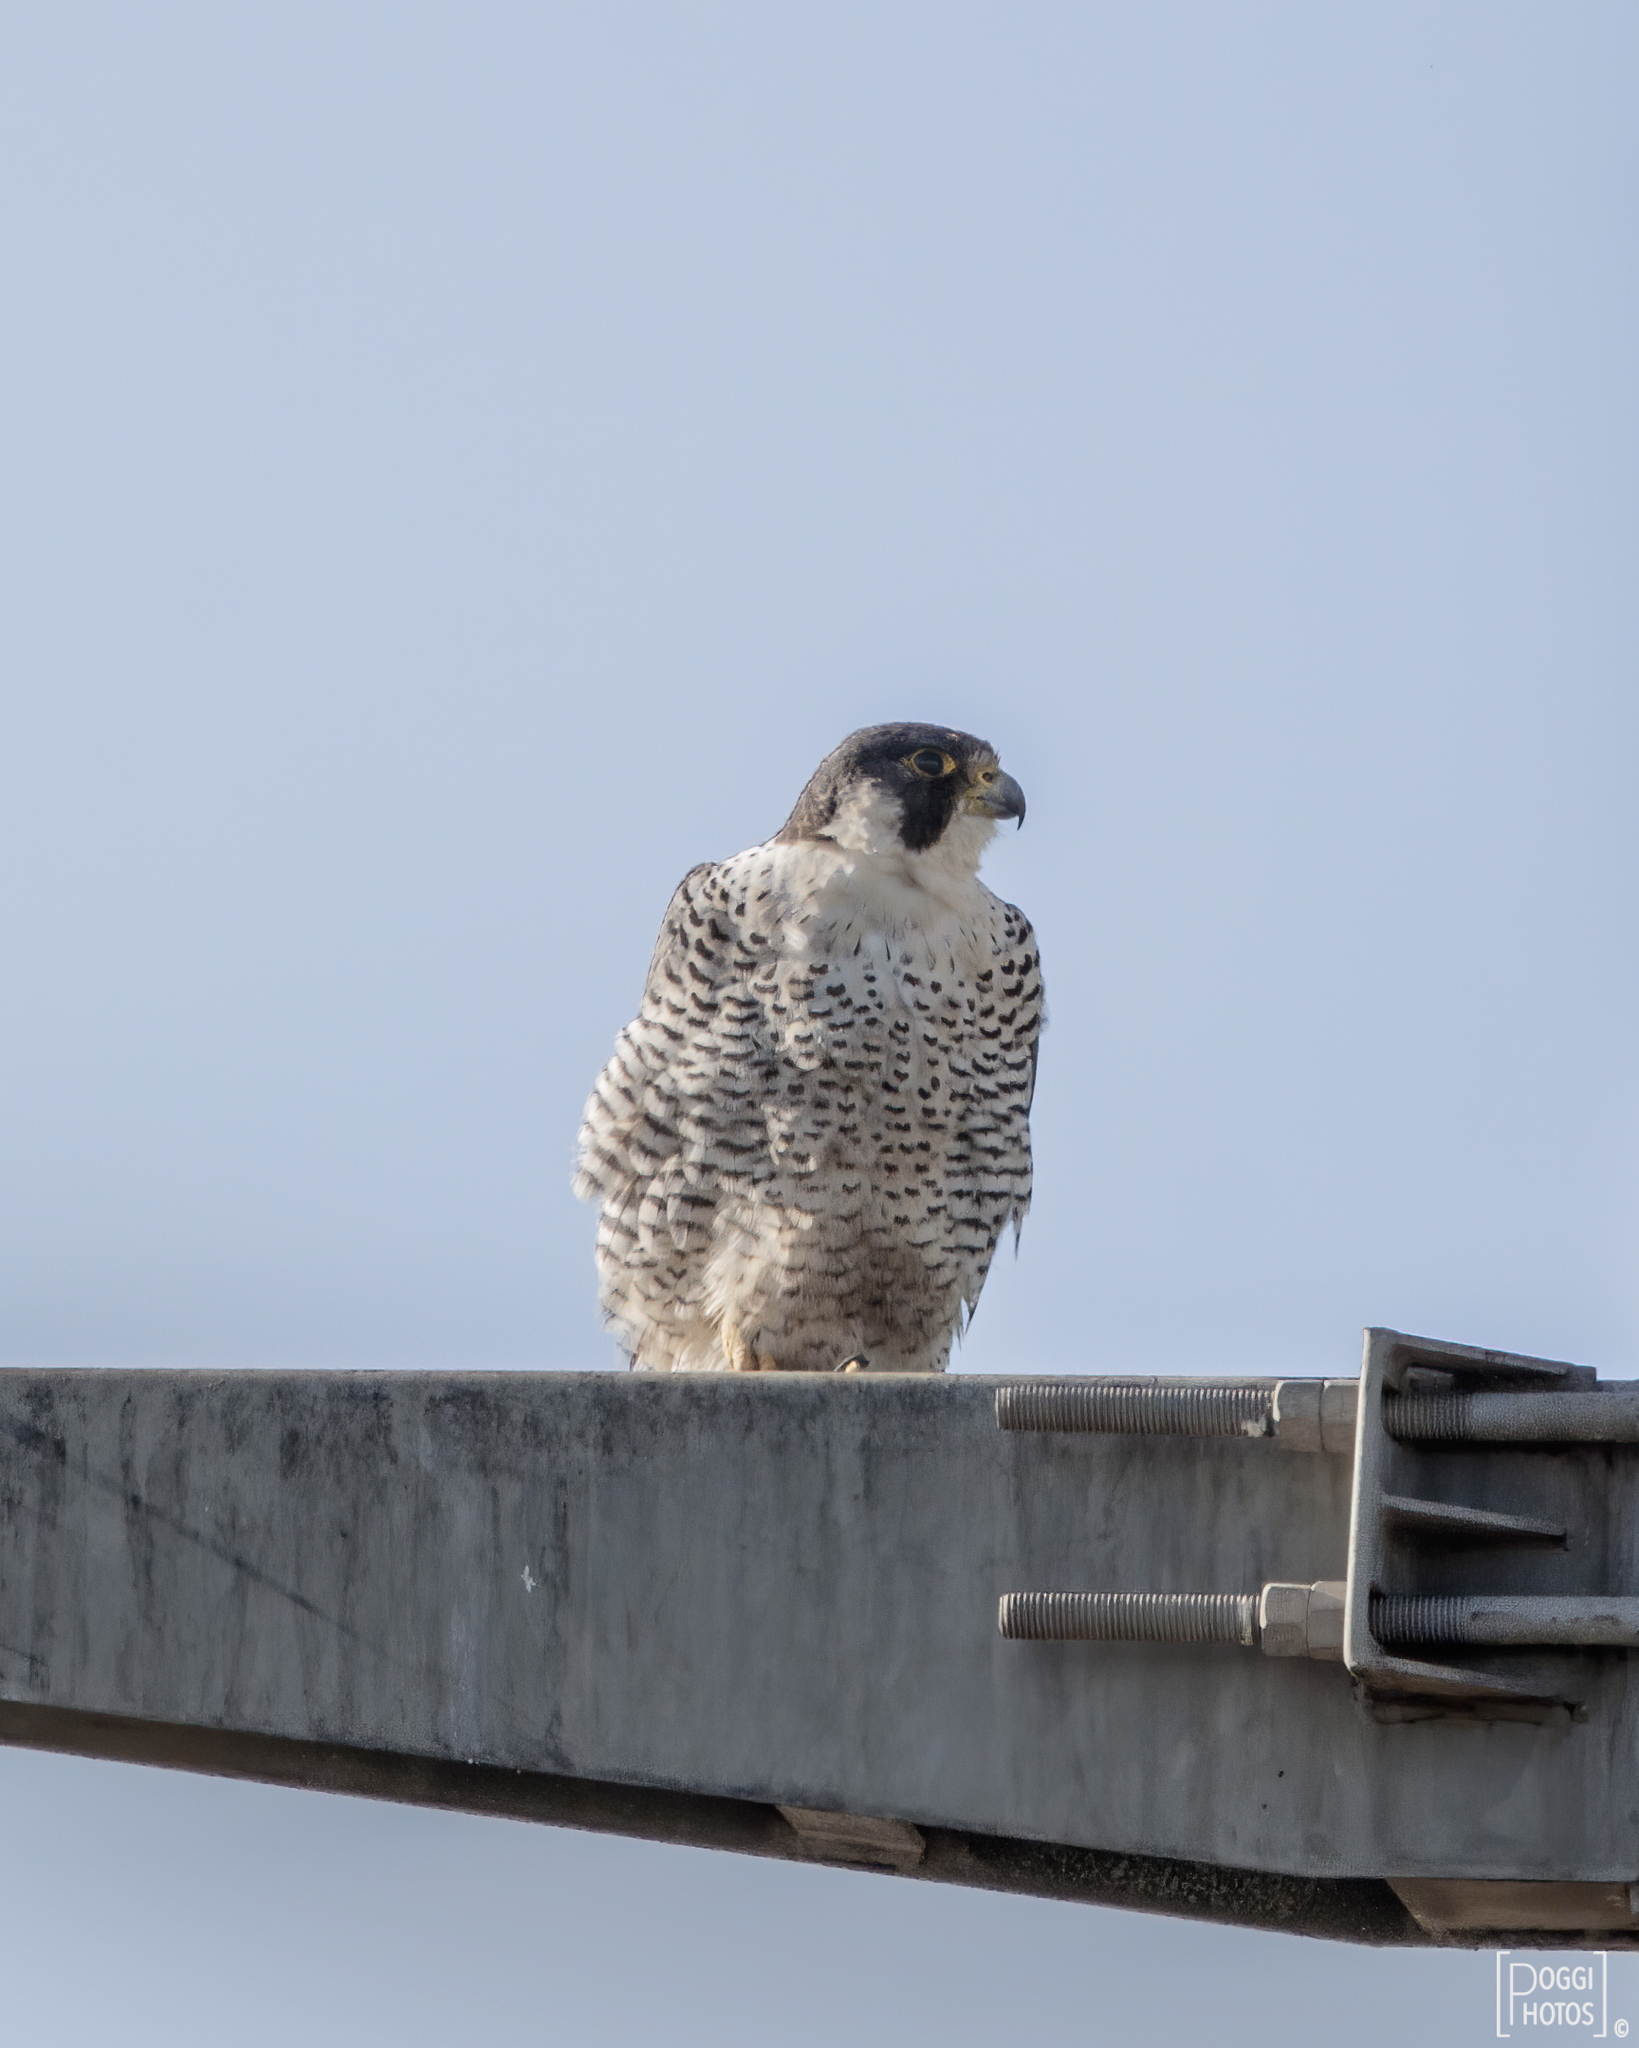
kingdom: Animalia
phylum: Chordata
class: Aves
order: Falconiformes
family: Falconidae
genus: Falco
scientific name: Falco peregrinus
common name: Peregrine falcon
